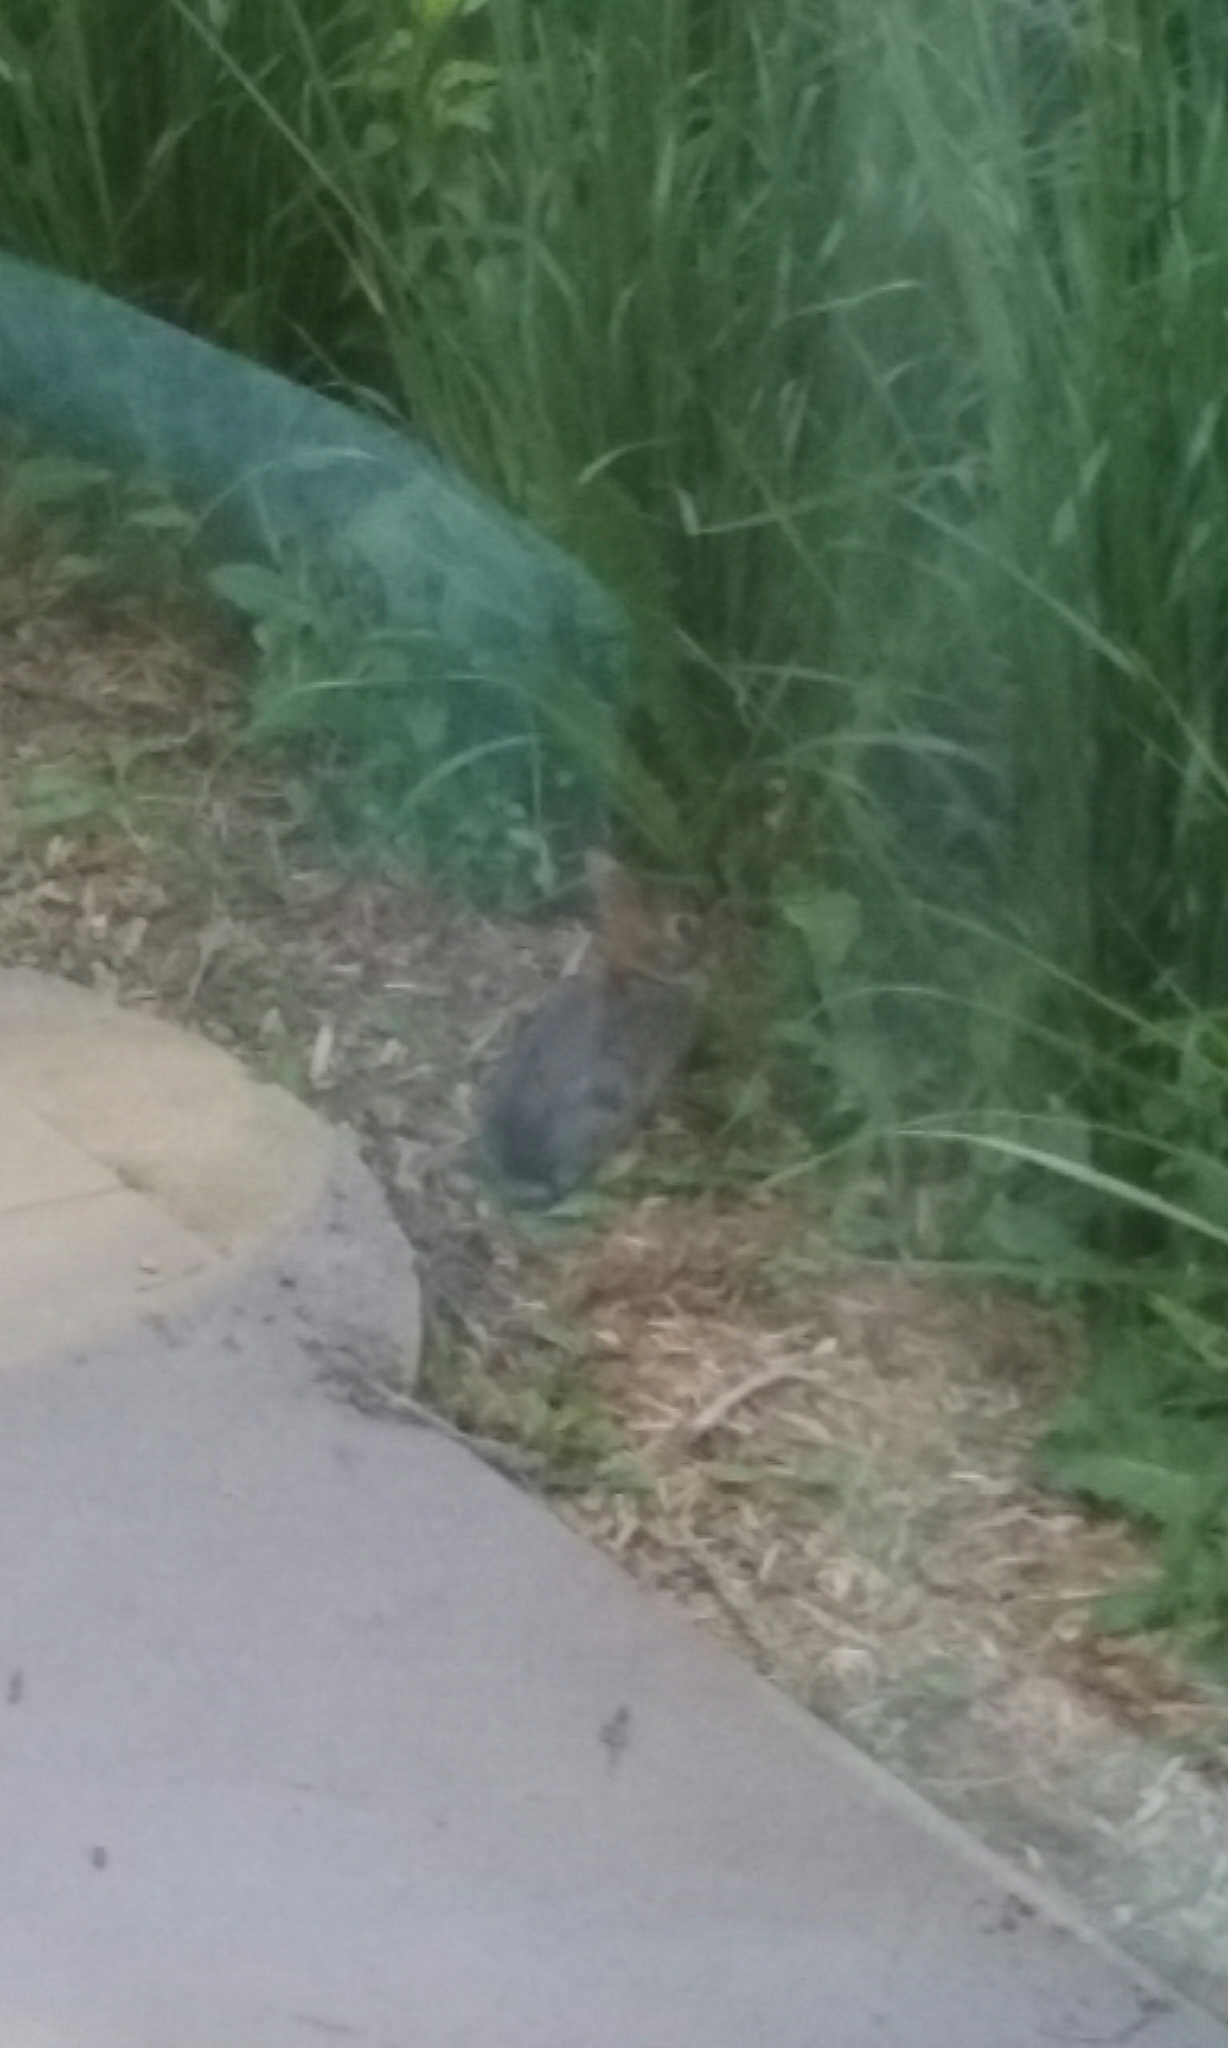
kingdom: Animalia
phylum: Chordata
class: Mammalia
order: Lagomorpha
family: Leporidae
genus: Sylvilagus
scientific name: Sylvilagus floridanus
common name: Eastern cottontail
